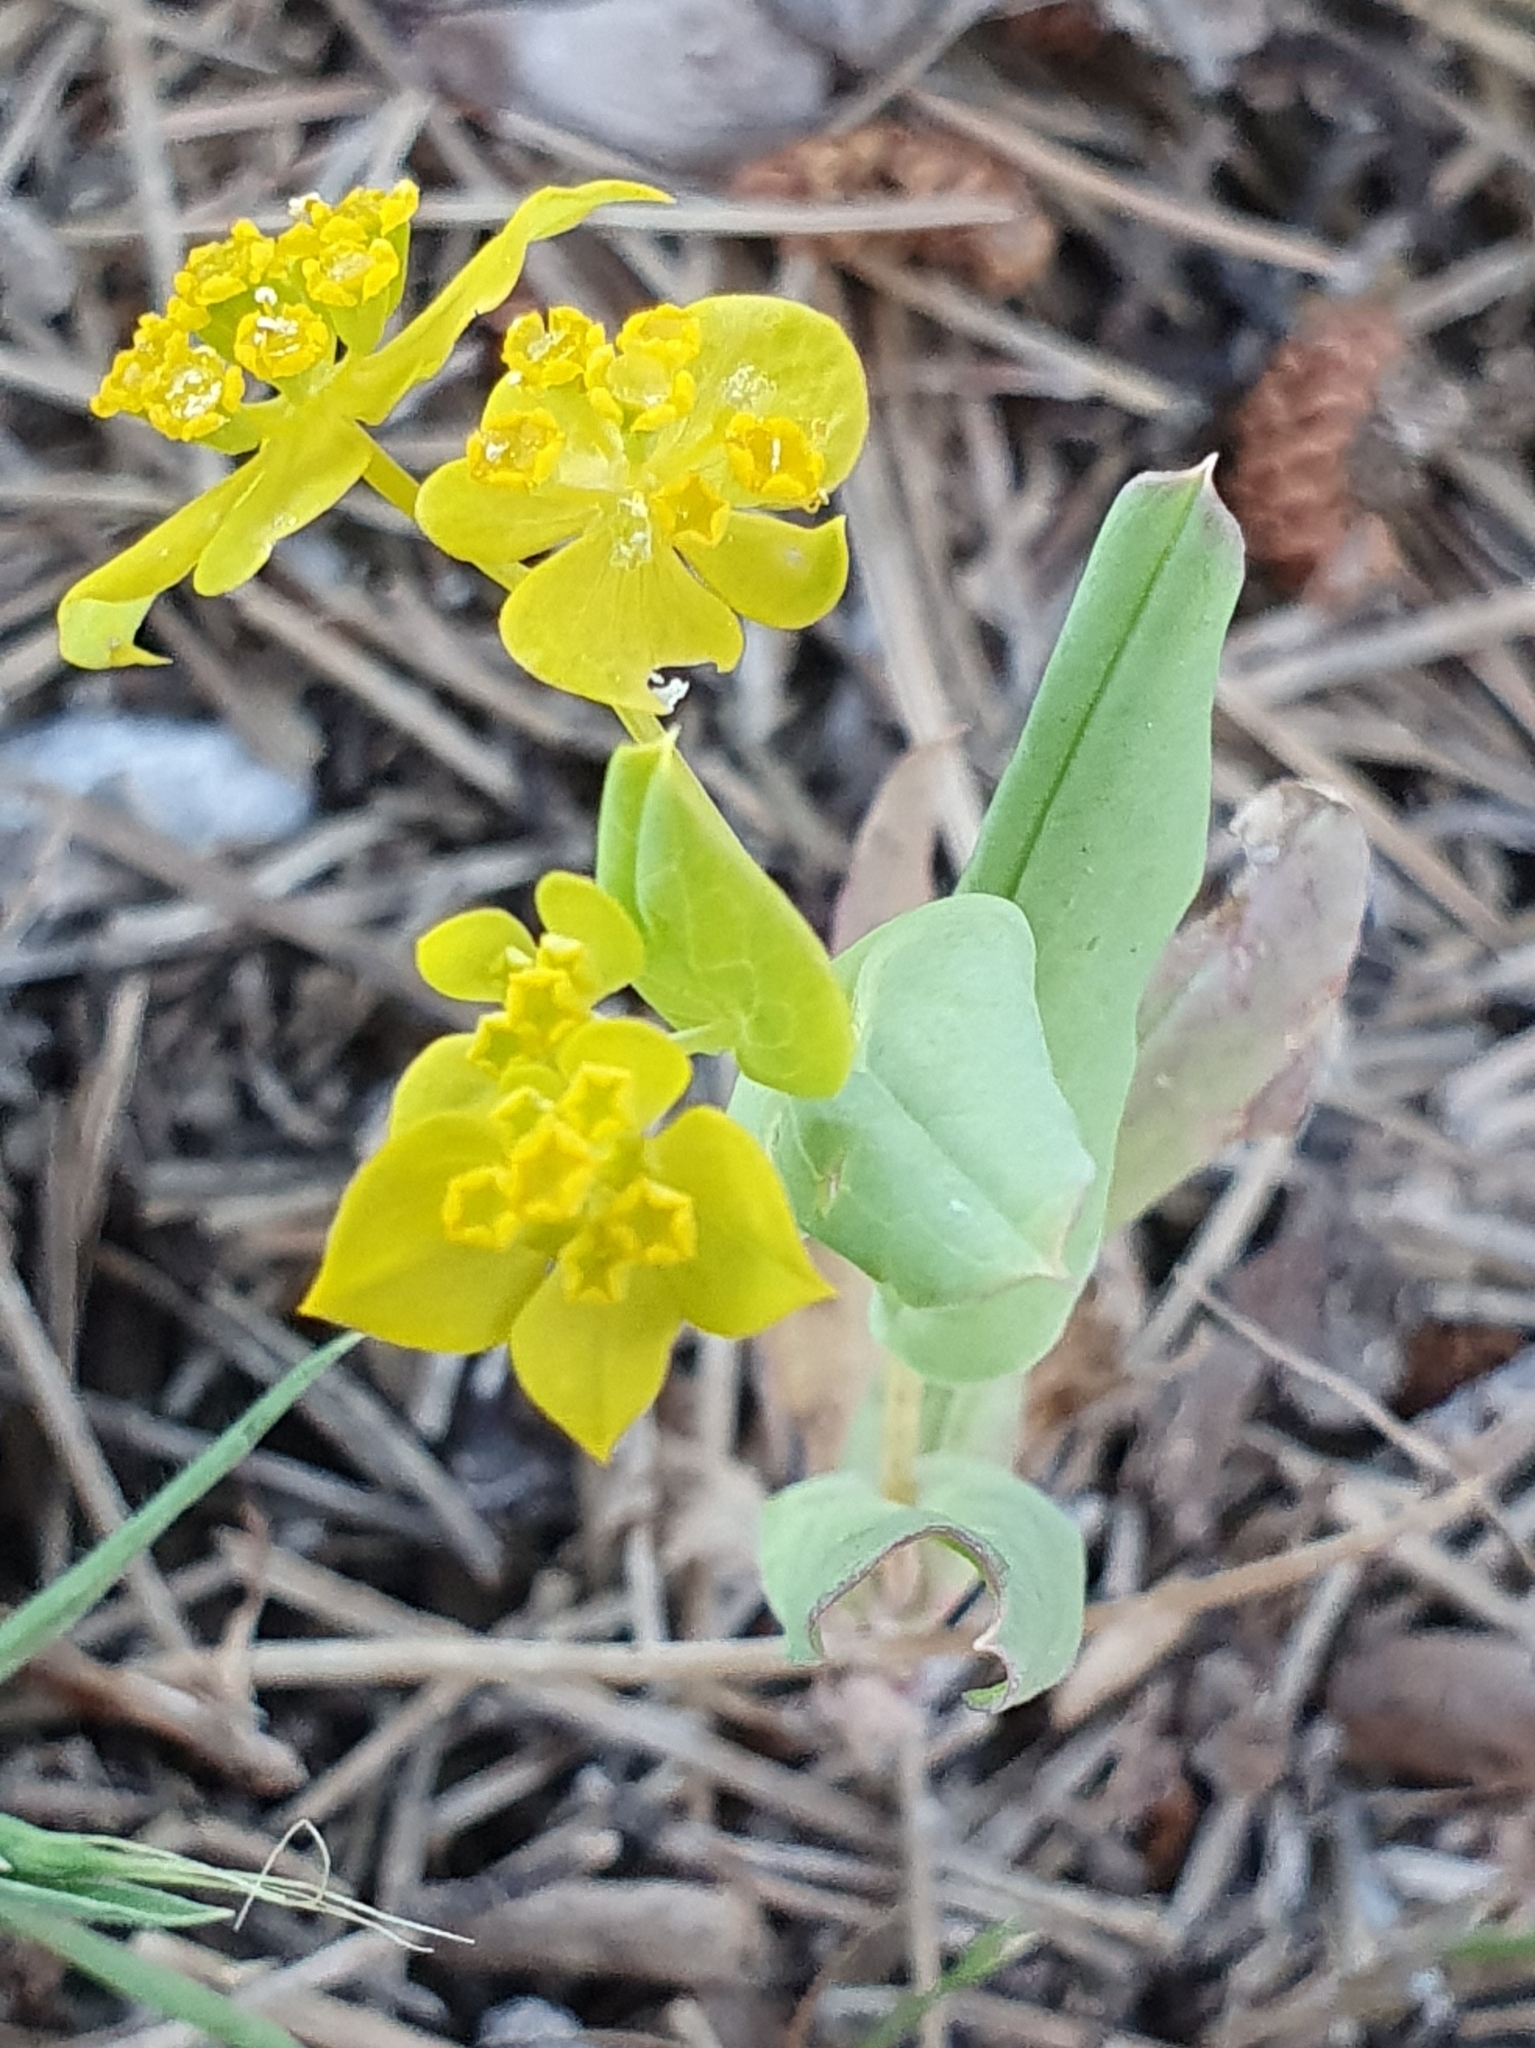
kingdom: Plantae
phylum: Tracheophyta
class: Magnoliopsida
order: Apiales
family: Apiaceae
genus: Bupleurum
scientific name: Bupleurum subovatum
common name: False thorow-wax
